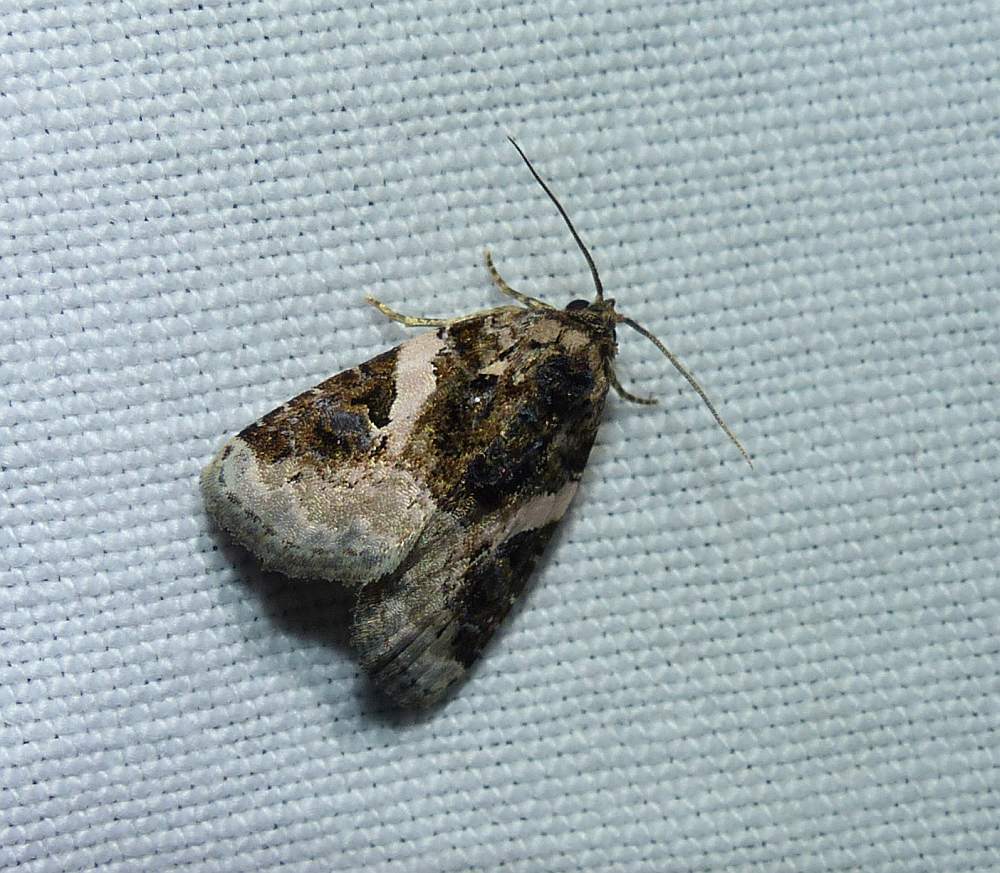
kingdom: Animalia
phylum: Arthropoda
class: Insecta
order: Lepidoptera
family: Noctuidae
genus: Pseudeustrotia
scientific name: Pseudeustrotia carneola
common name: Pink-barred lithacodia moth
